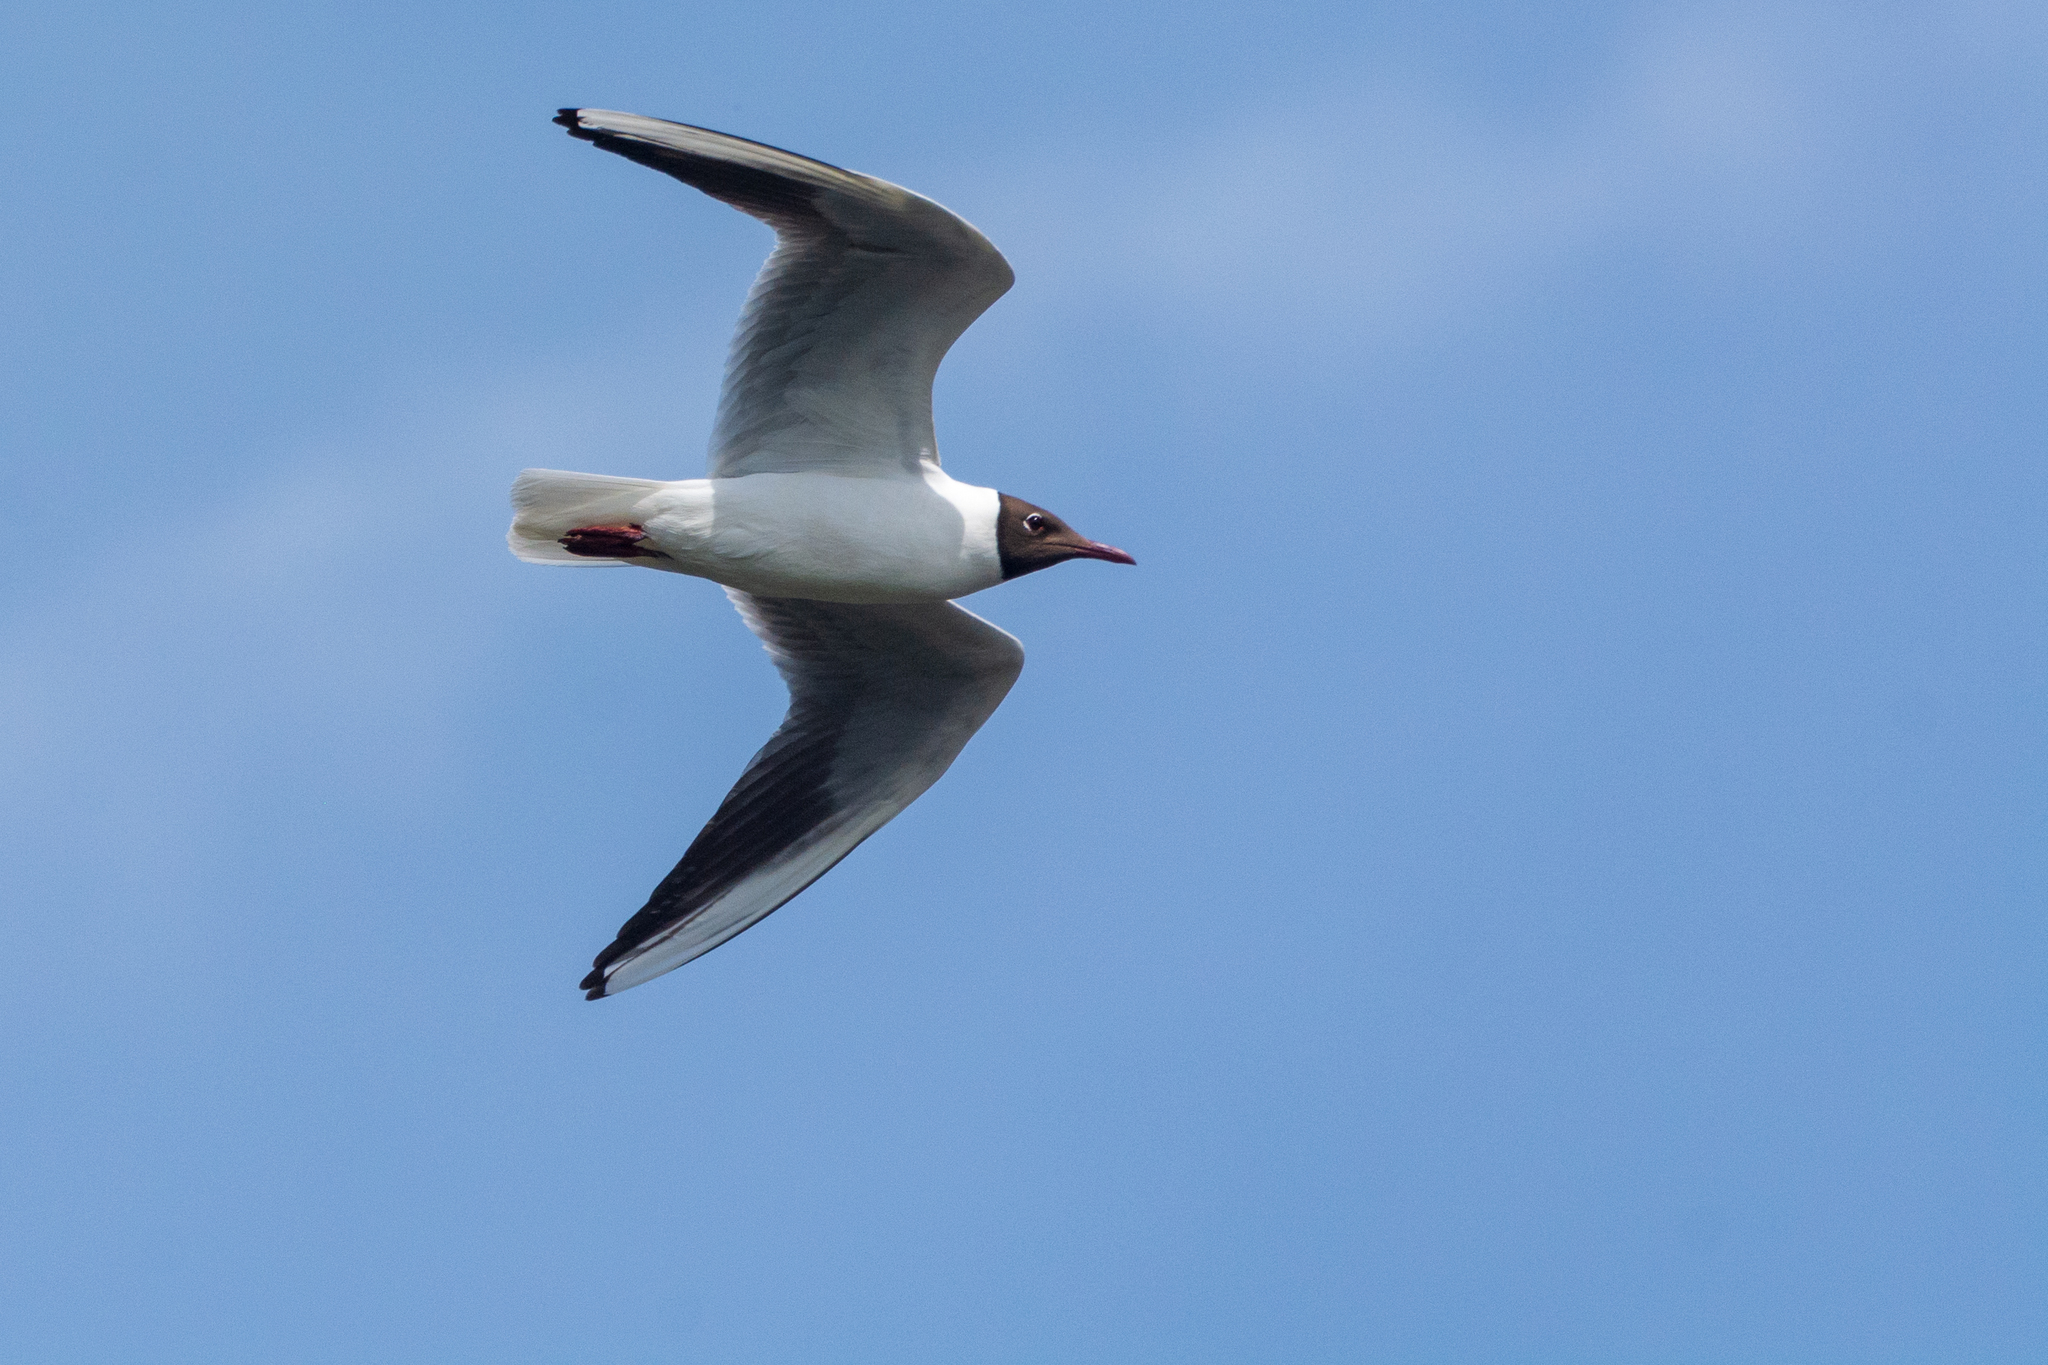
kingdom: Animalia
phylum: Chordata
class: Aves
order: Charadriiformes
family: Laridae
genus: Chroicocephalus
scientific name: Chroicocephalus ridibundus
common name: Black-headed gull
